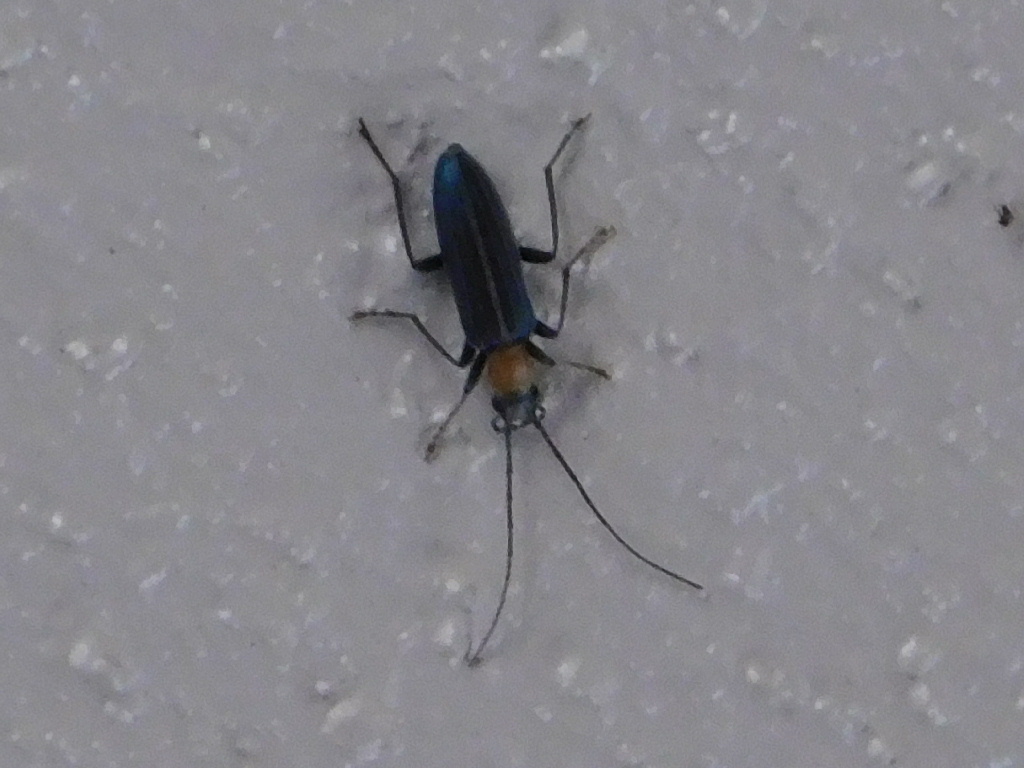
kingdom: Animalia
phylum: Arthropoda
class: Insecta
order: Coleoptera
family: Oedemeridae
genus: Oxycopis
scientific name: Oxycopis floridana
